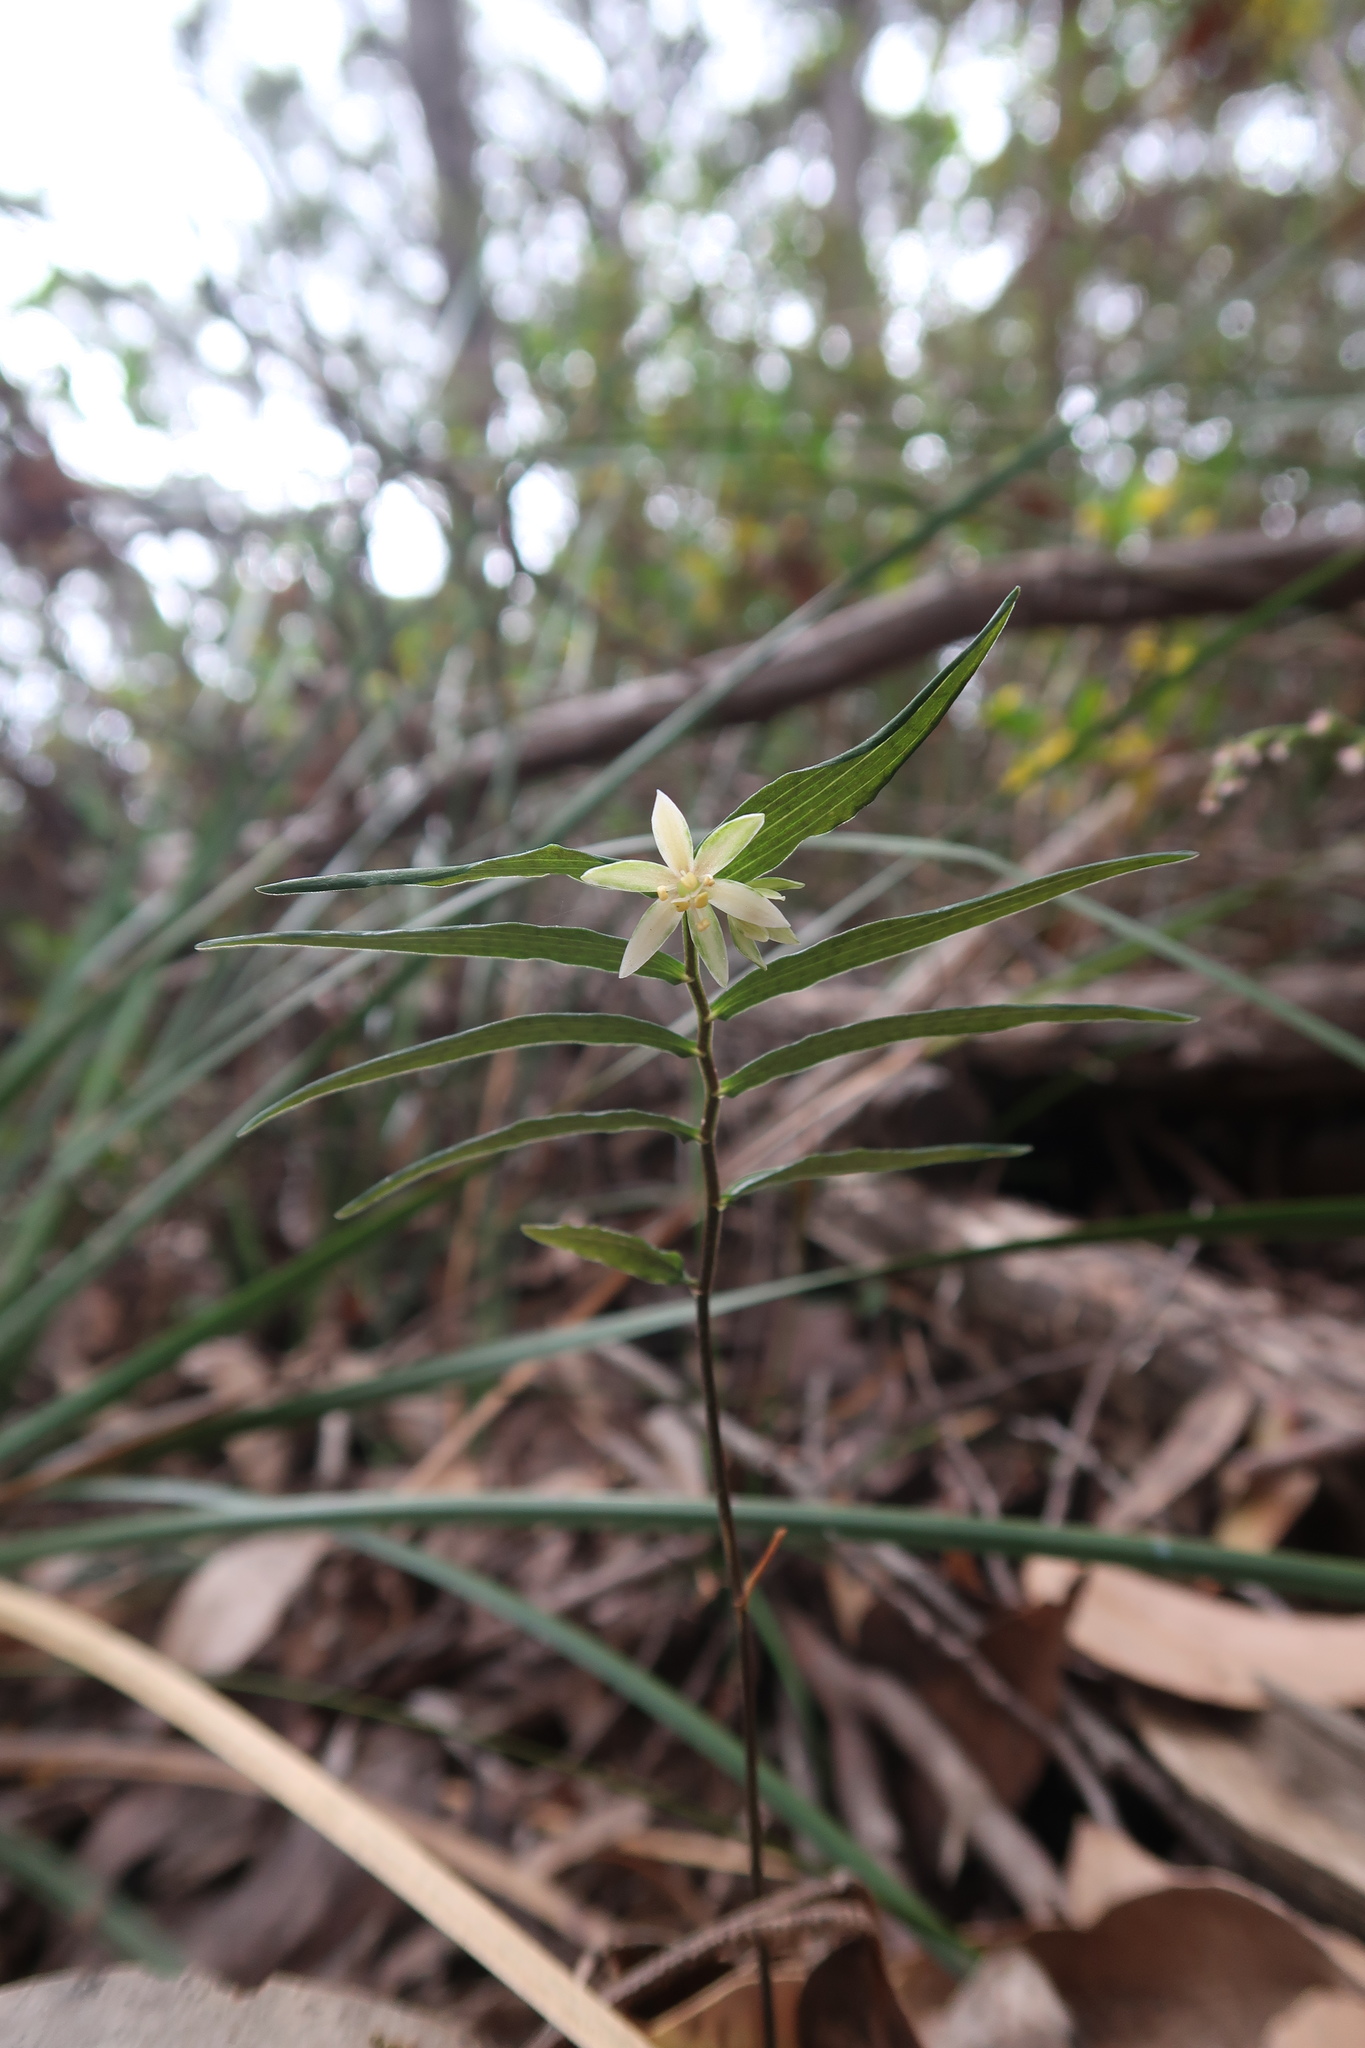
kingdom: Plantae
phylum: Tracheophyta
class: Liliopsida
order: Liliales
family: Alstroemeriaceae
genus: Drymophila
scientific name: Drymophila cyanocarpa
